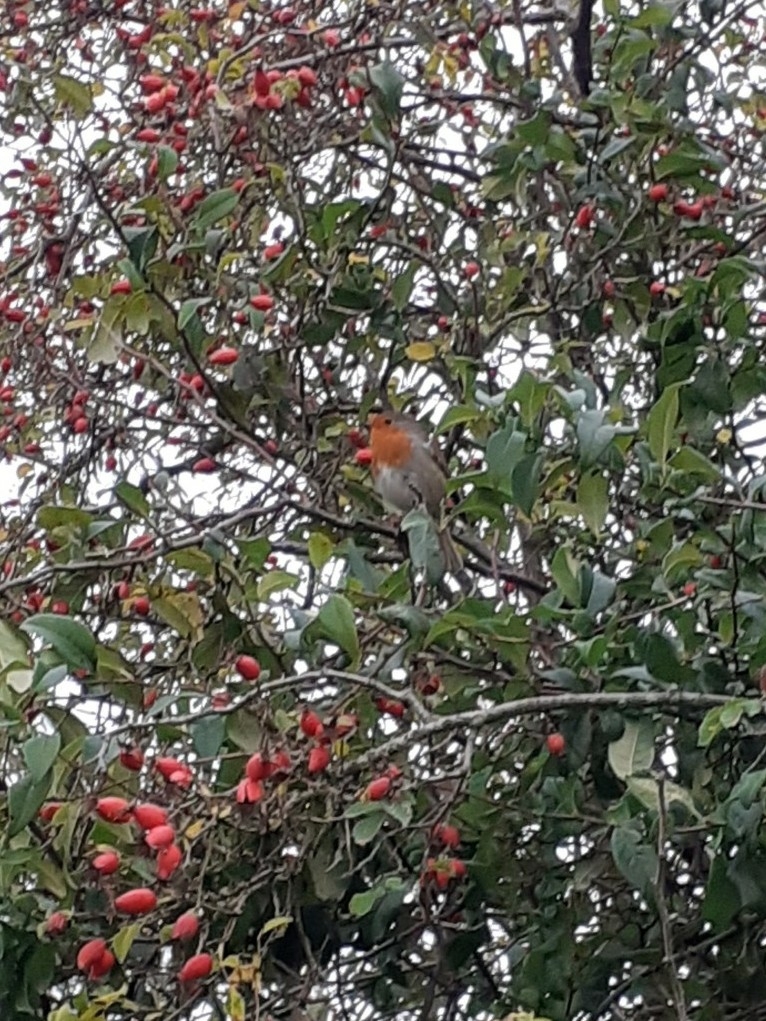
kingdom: Animalia
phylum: Chordata
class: Aves
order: Passeriformes
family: Muscicapidae
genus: Erithacus
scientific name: Erithacus rubecula
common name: European robin
